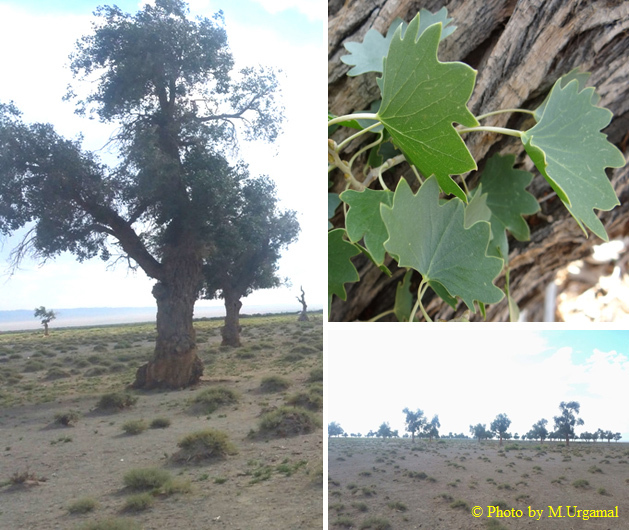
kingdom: Plantae
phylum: Tracheophyta
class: Magnoliopsida
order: Malpighiales
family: Salicaceae
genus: Populus
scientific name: Populus euphratica
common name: Euphrates poplar
